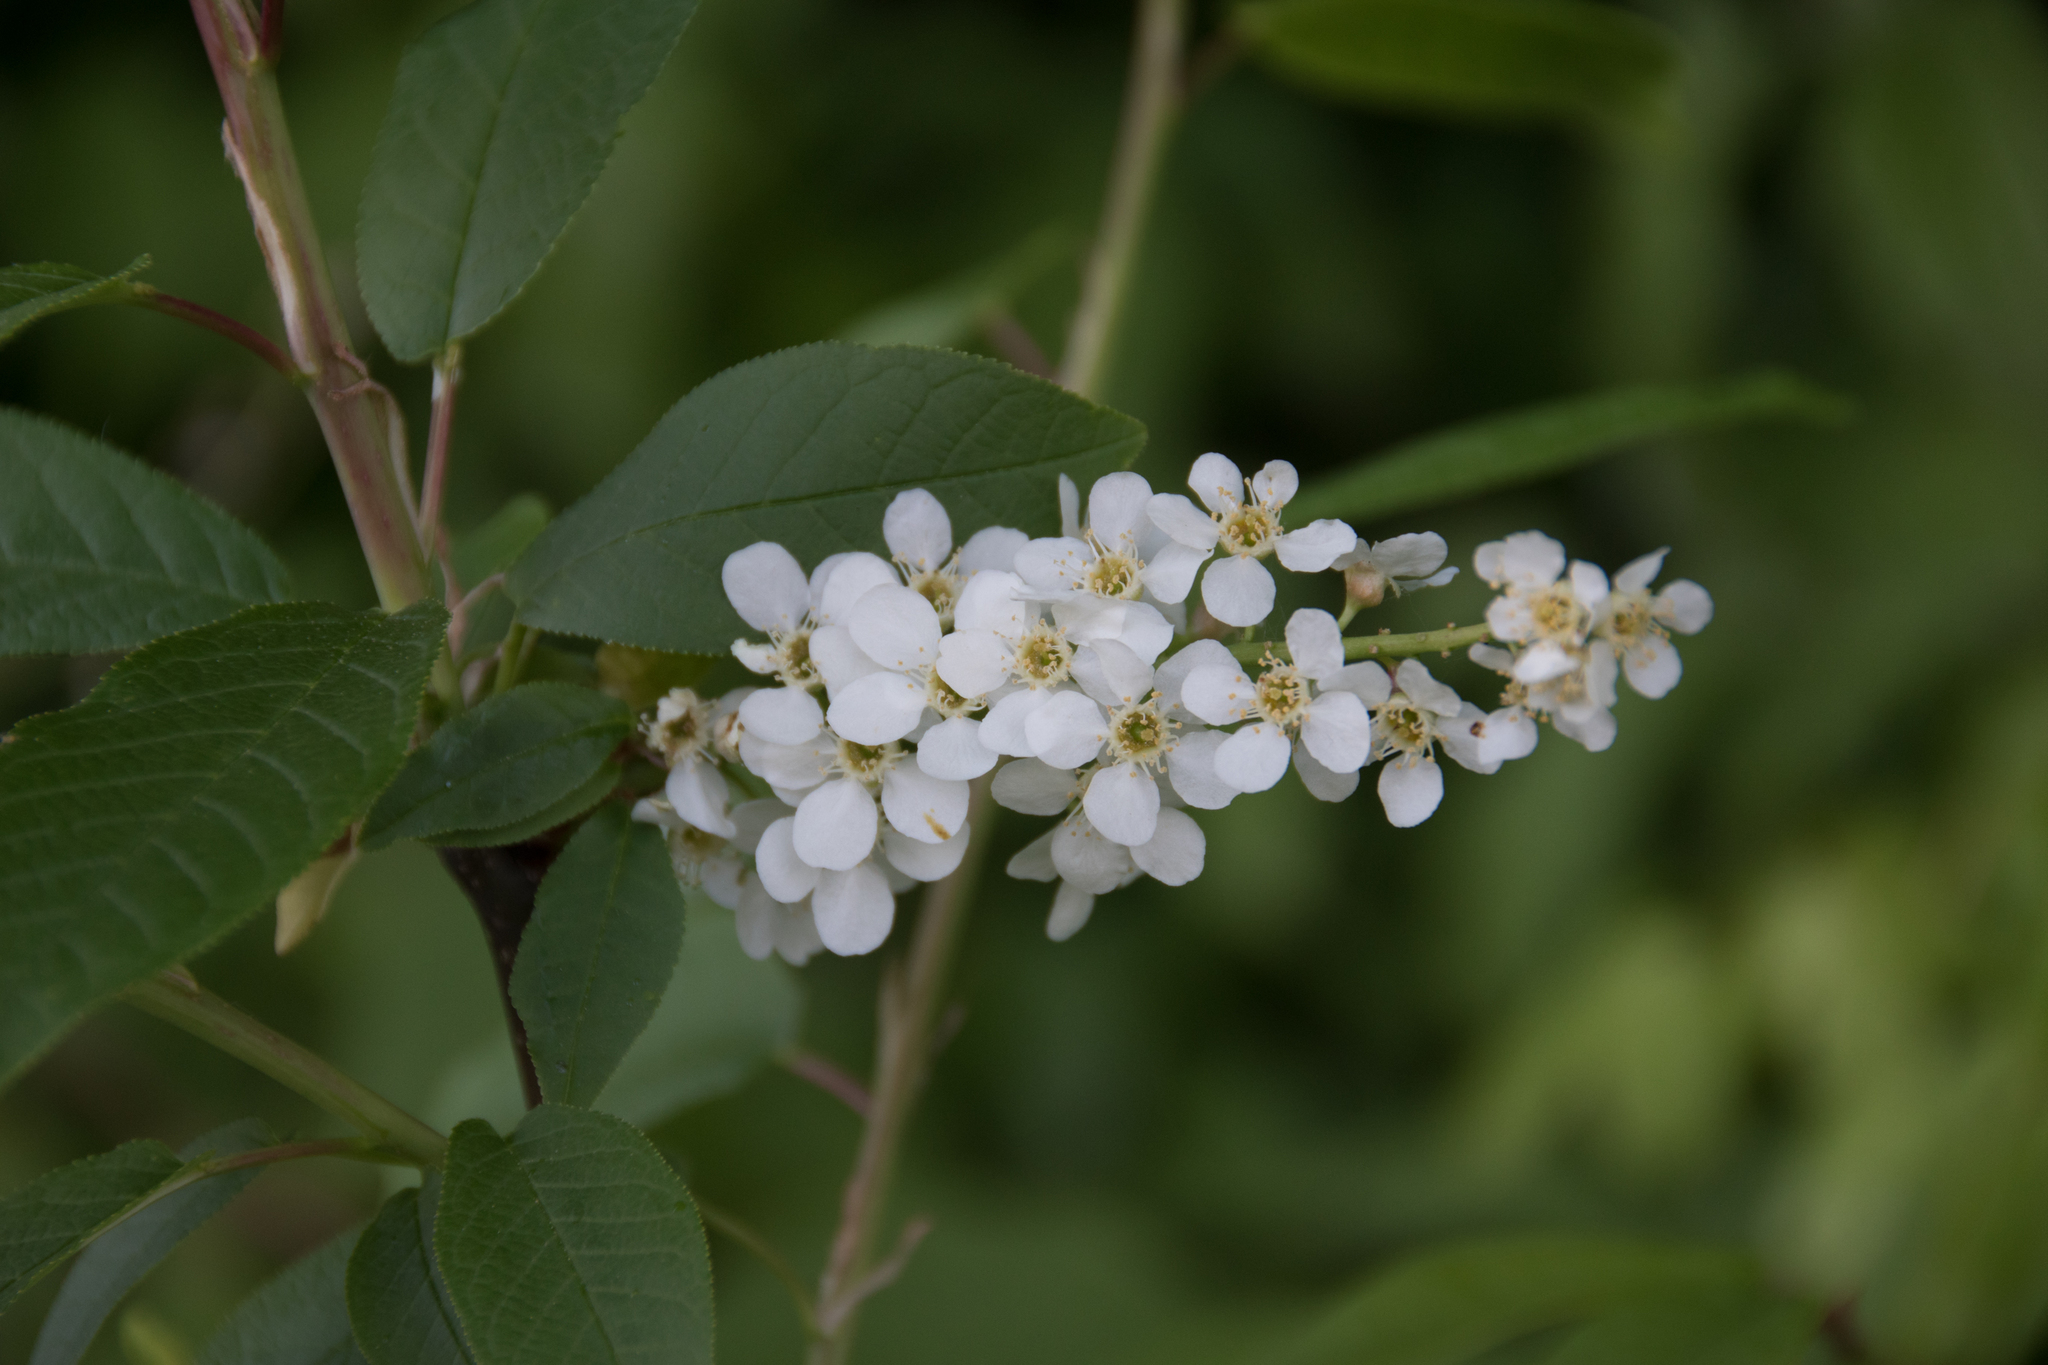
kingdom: Plantae
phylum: Tracheophyta
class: Magnoliopsida
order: Rosales
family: Rosaceae
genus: Prunus
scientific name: Prunus padus
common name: Bird cherry
